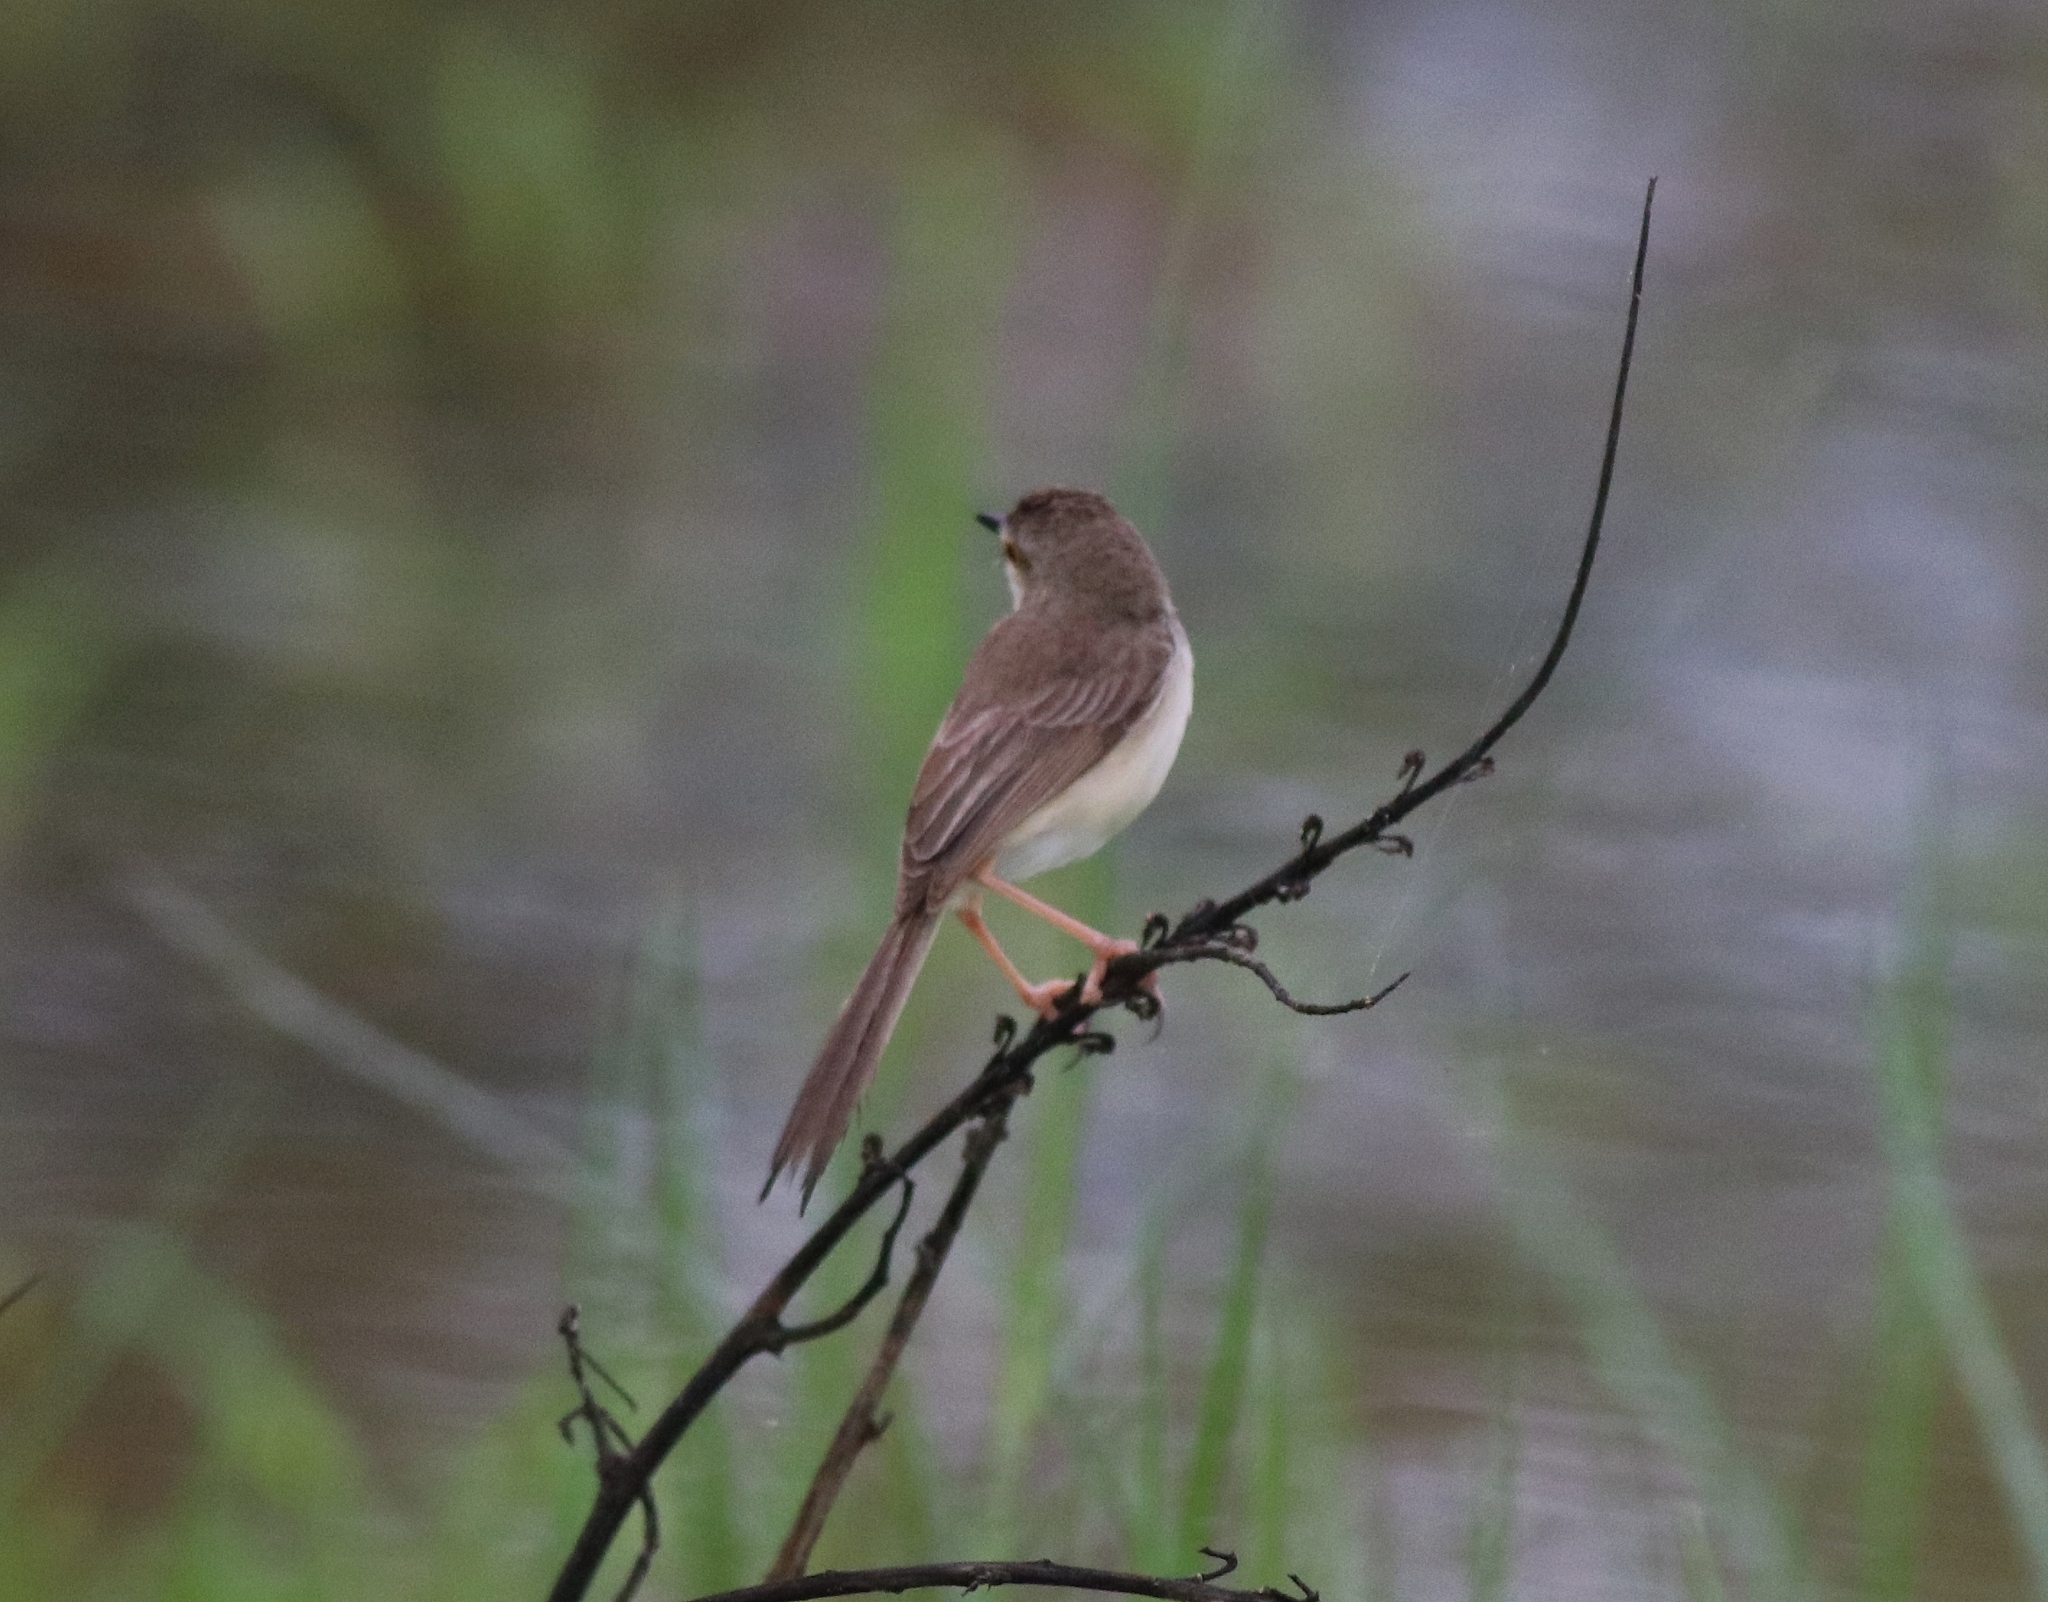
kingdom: Animalia
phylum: Chordata
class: Aves
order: Passeriformes
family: Cisticolidae
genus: Prinia
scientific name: Prinia inornata
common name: Plain prinia
